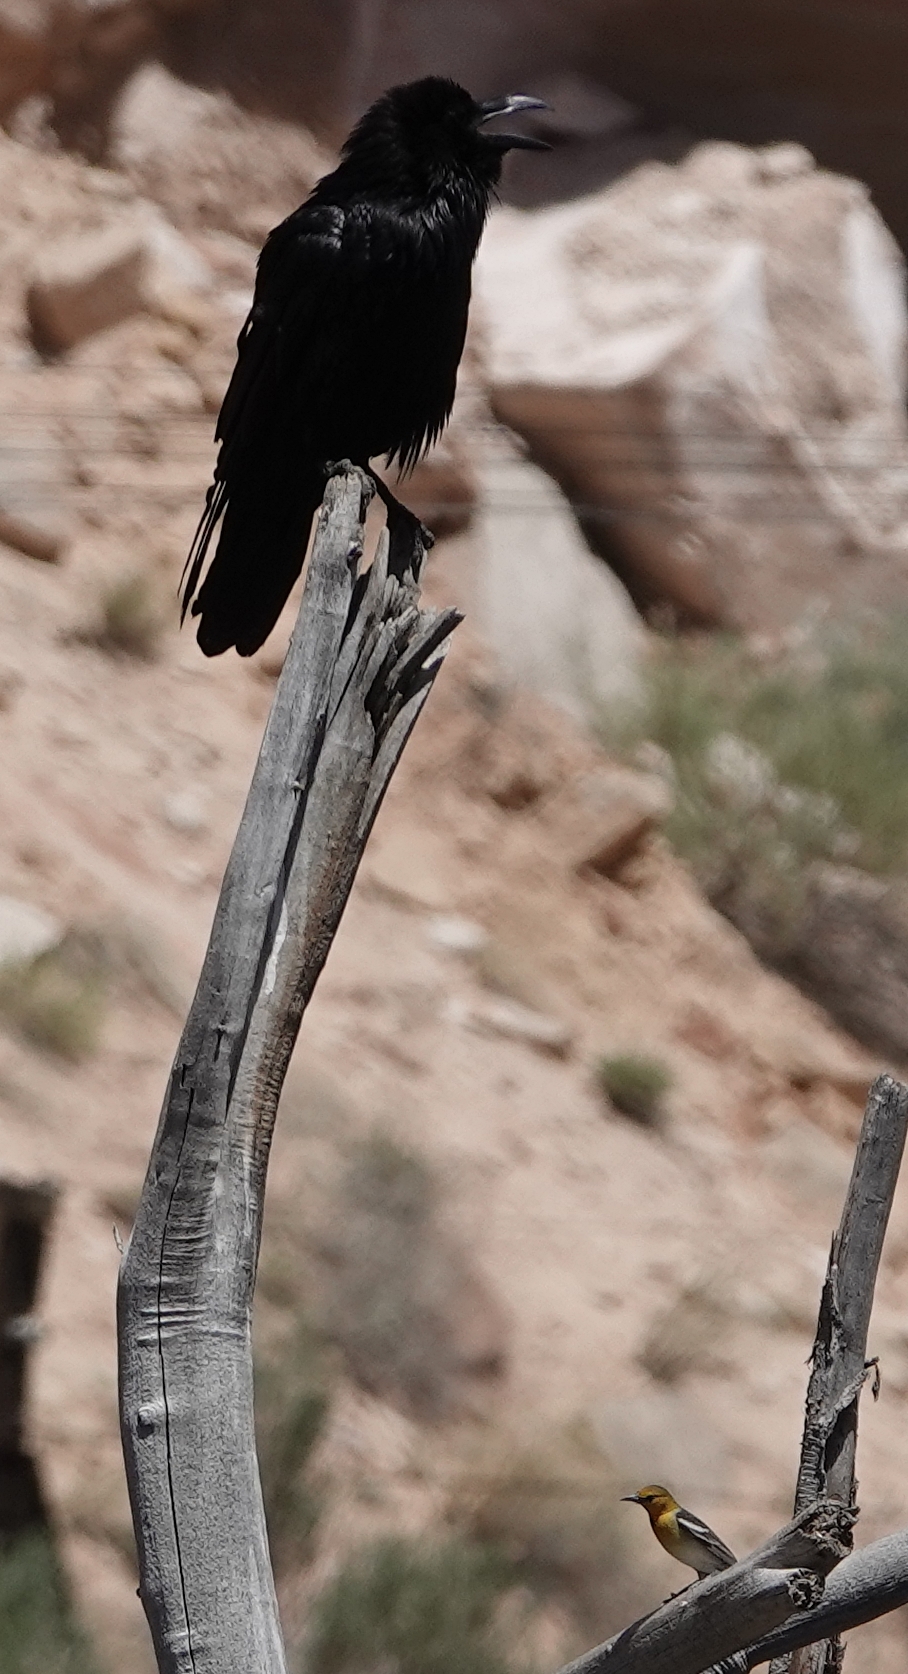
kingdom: Animalia
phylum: Chordata
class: Aves
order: Passeriformes
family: Corvidae
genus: Corvus
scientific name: Corvus corax
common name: Common raven
